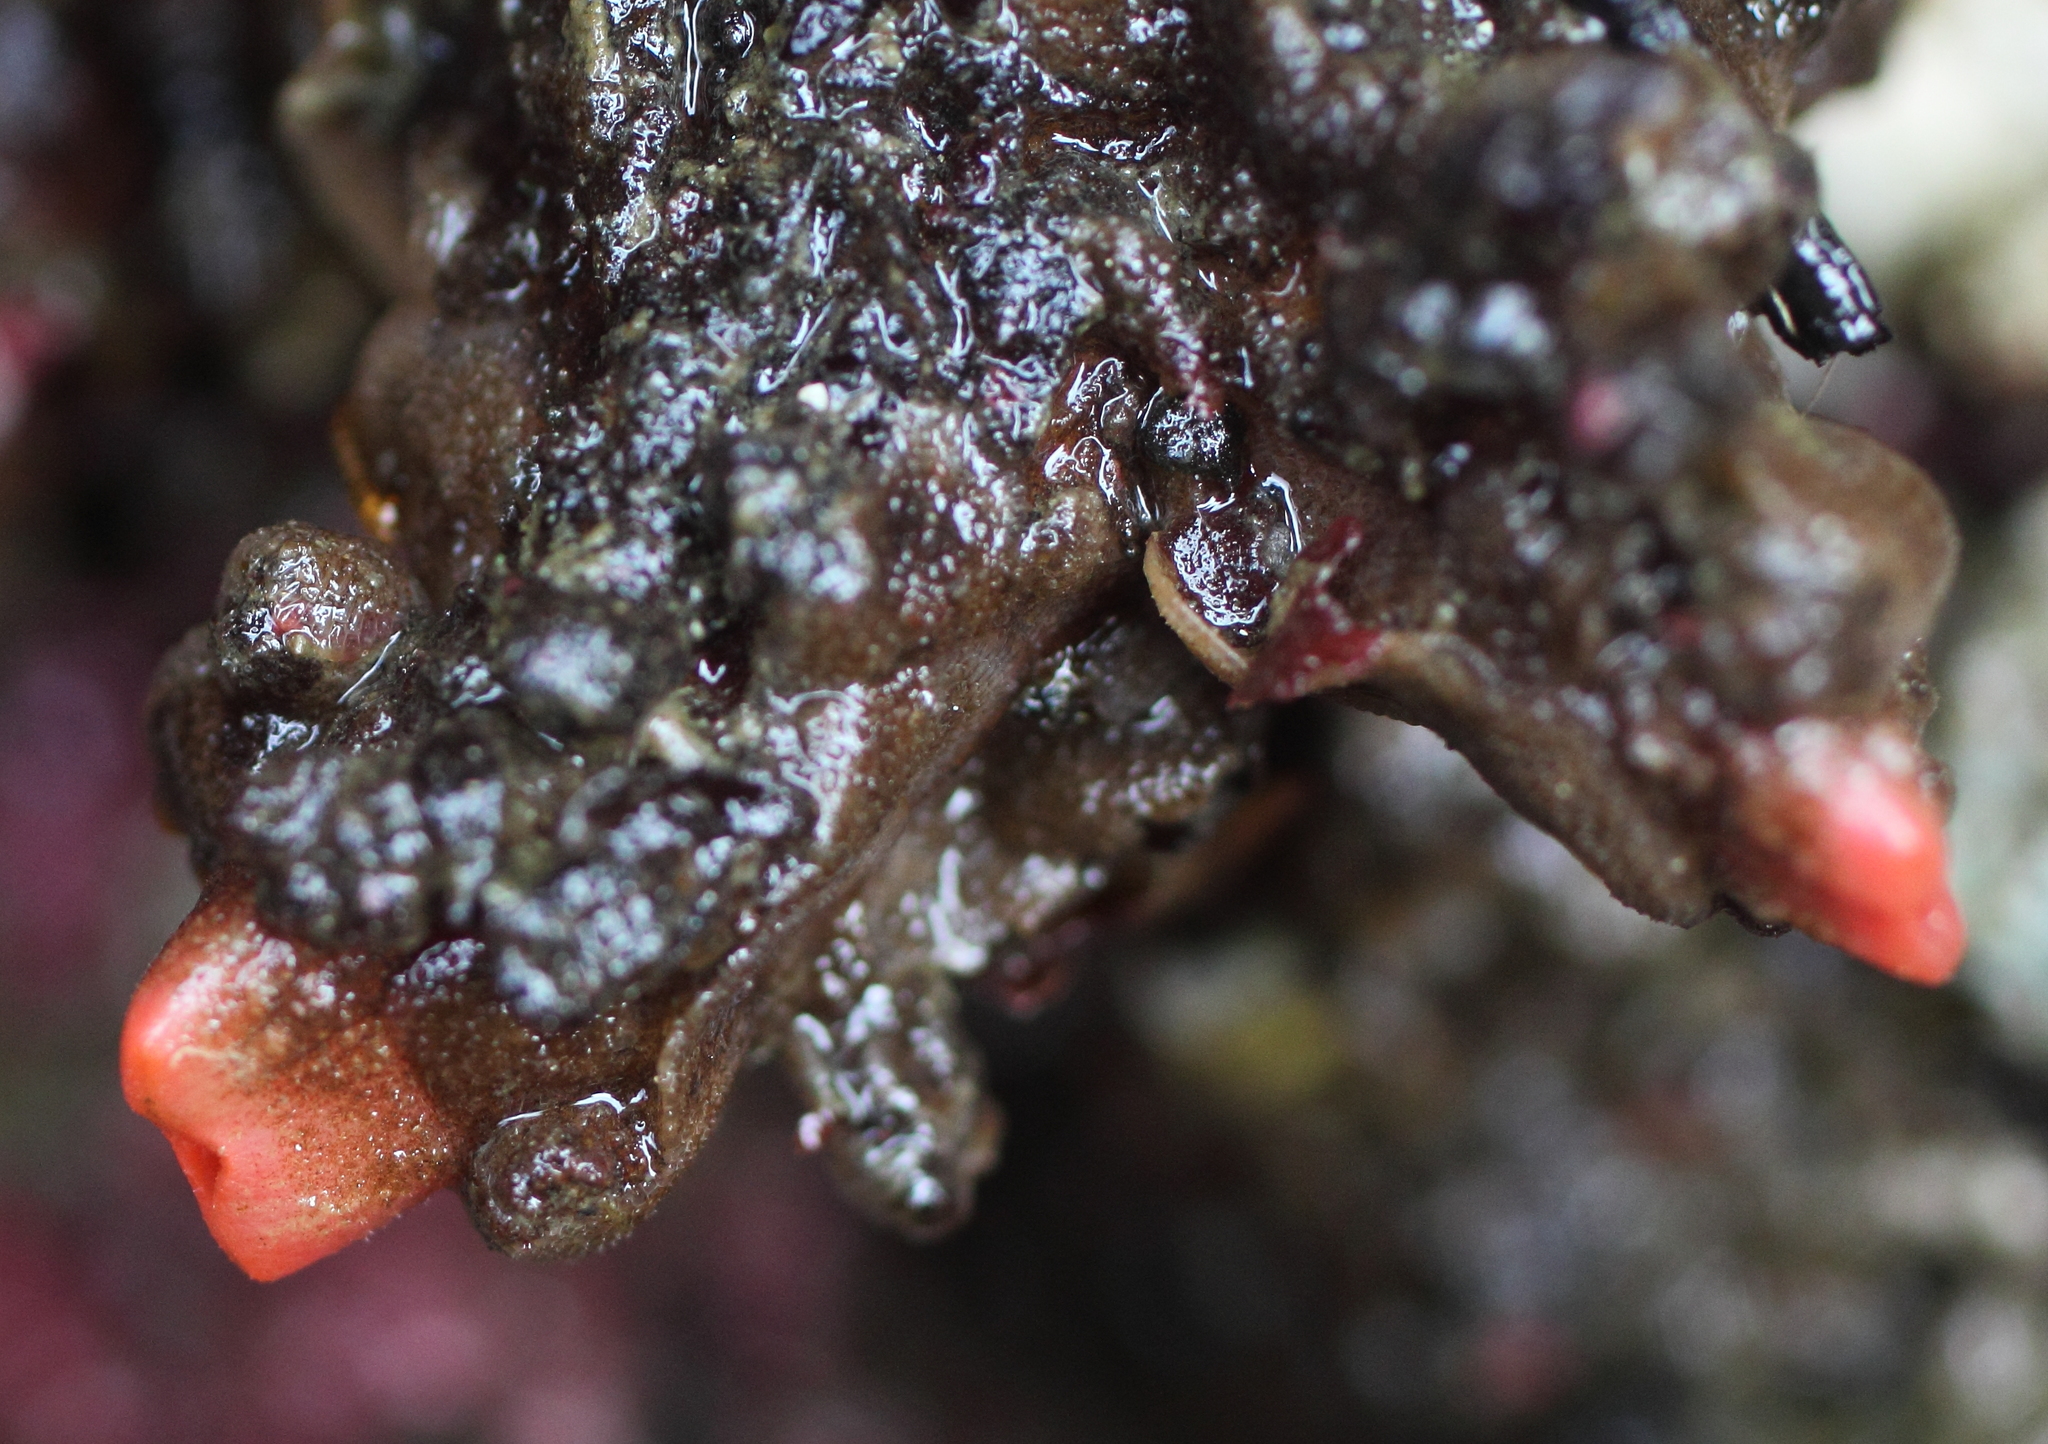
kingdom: Animalia
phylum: Chordata
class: Ascidiacea
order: Stolidobranchia
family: Pyuridae
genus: Pyura
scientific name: Pyura haustor
